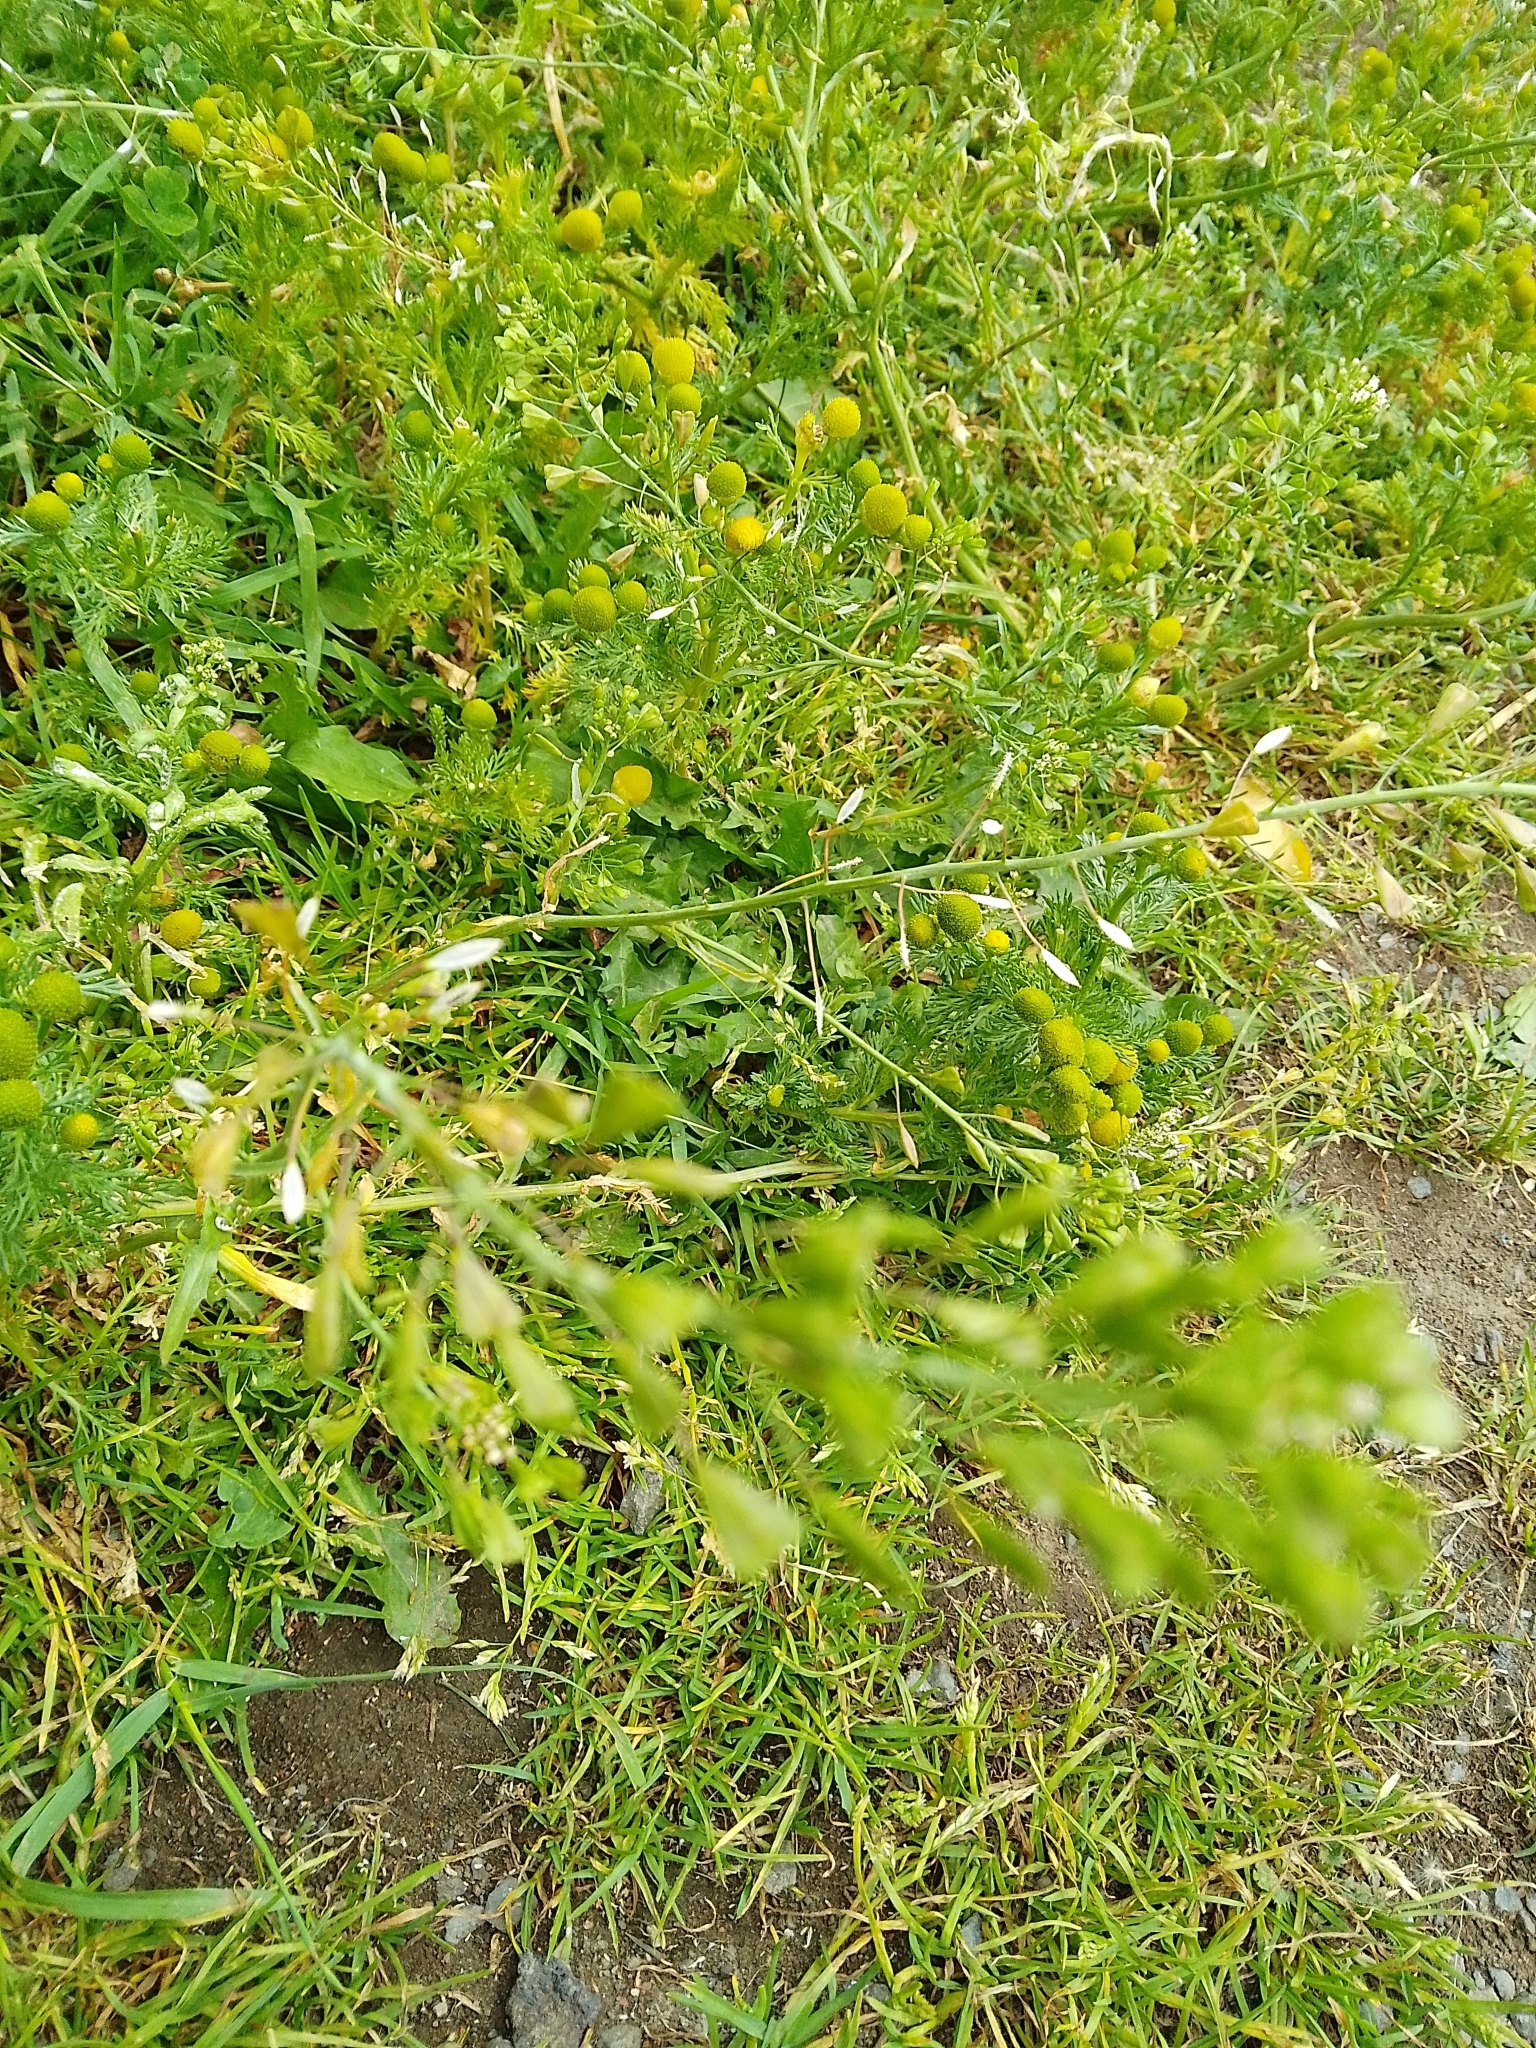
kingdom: Plantae
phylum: Tracheophyta
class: Magnoliopsida
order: Brassicales
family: Brassicaceae
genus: Capsella
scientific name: Capsella bursa-pastoris
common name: Shepherd's purse
